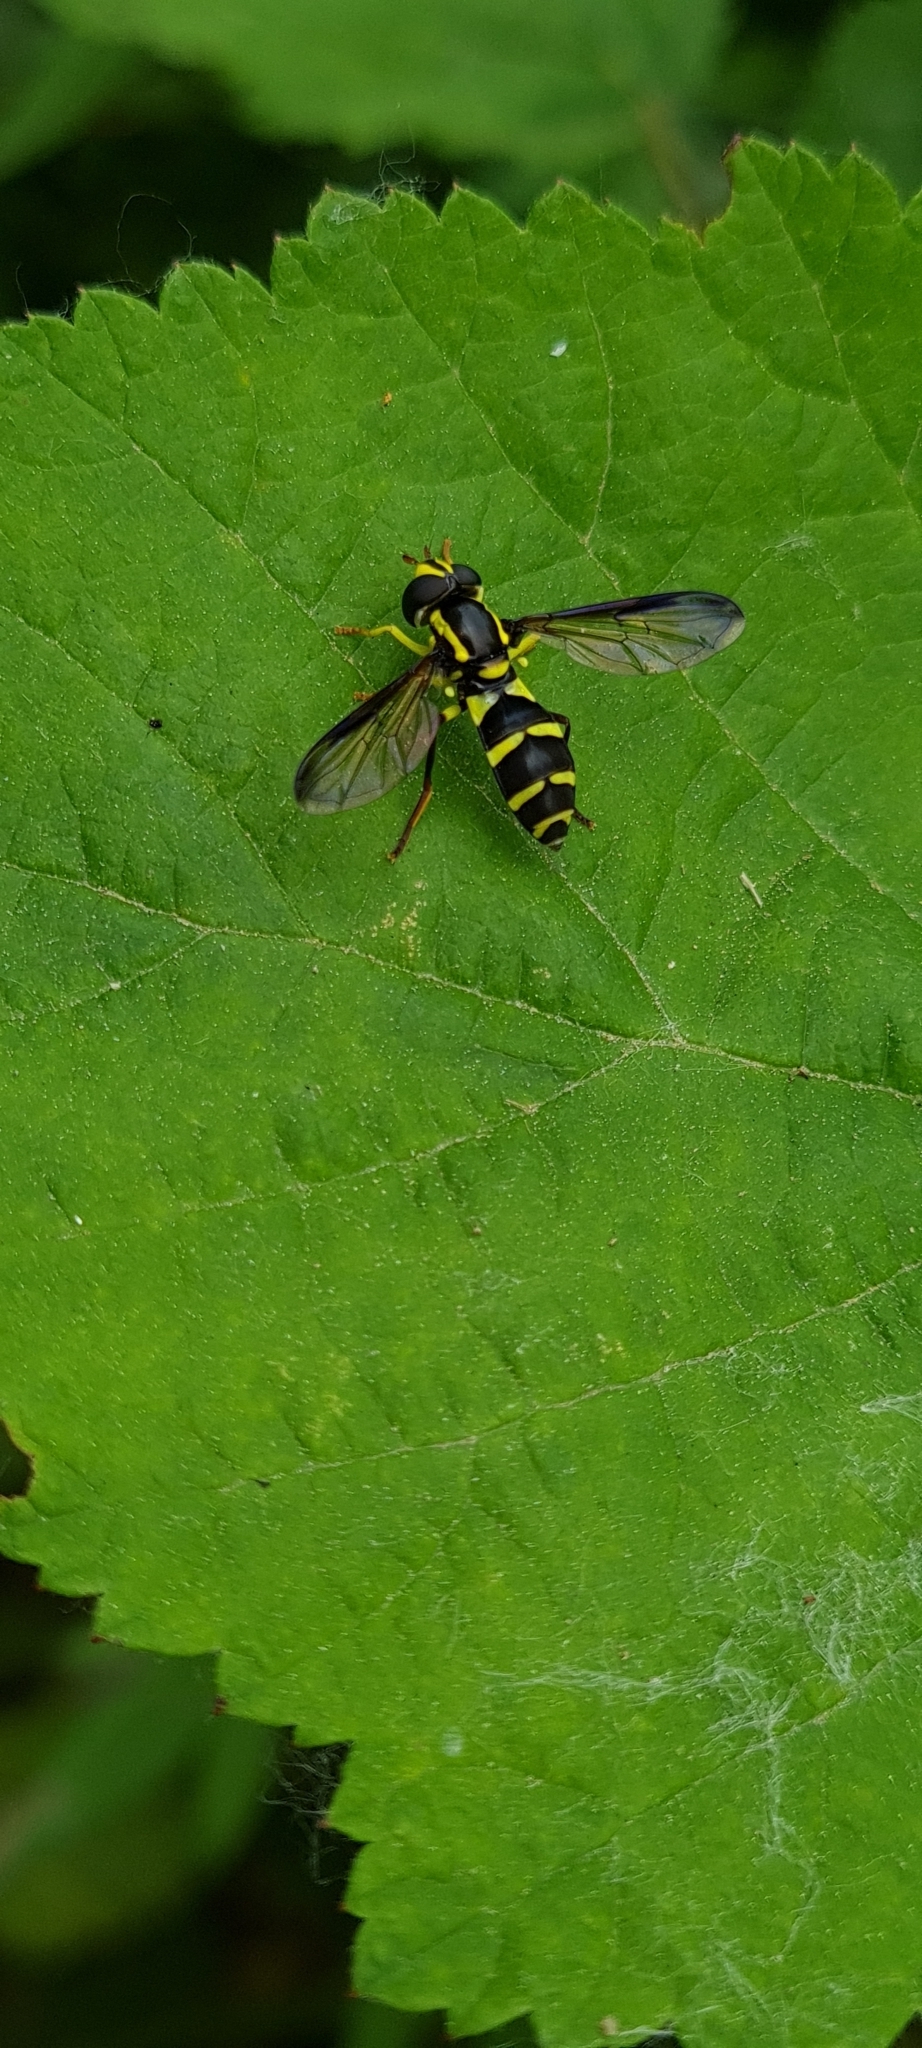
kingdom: Animalia
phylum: Arthropoda
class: Insecta
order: Diptera
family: Syrphidae
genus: Philhelius
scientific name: Philhelius dives
